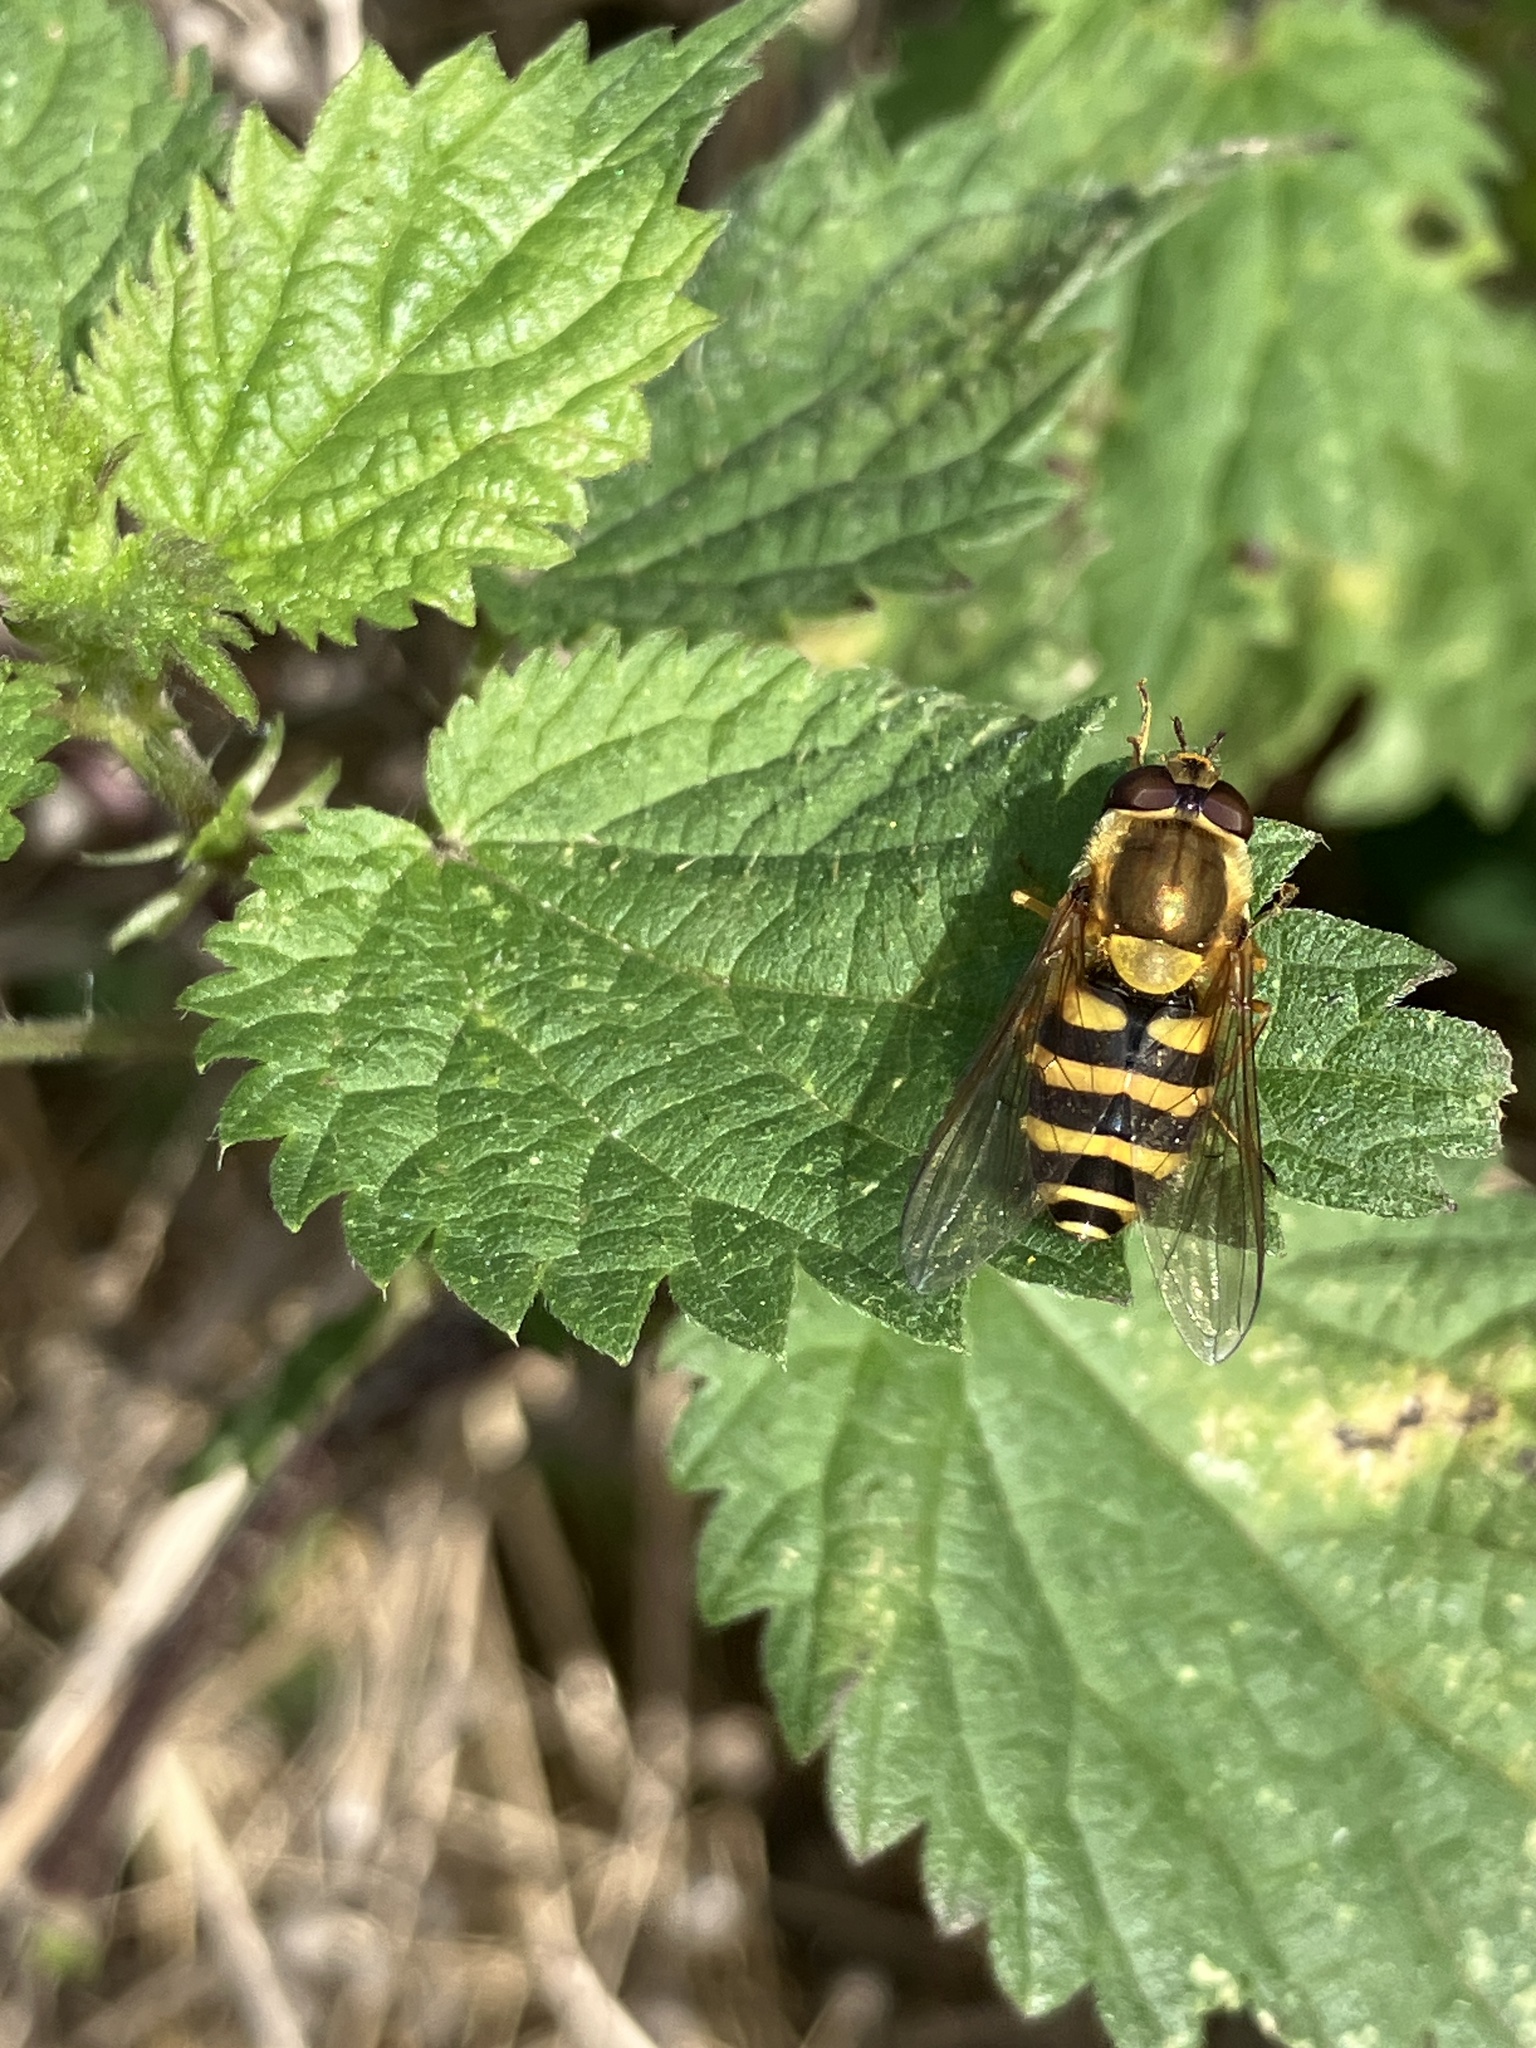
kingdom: Animalia
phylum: Arthropoda
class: Insecta
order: Diptera
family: Syrphidae
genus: Syrphus
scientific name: Syrphus
